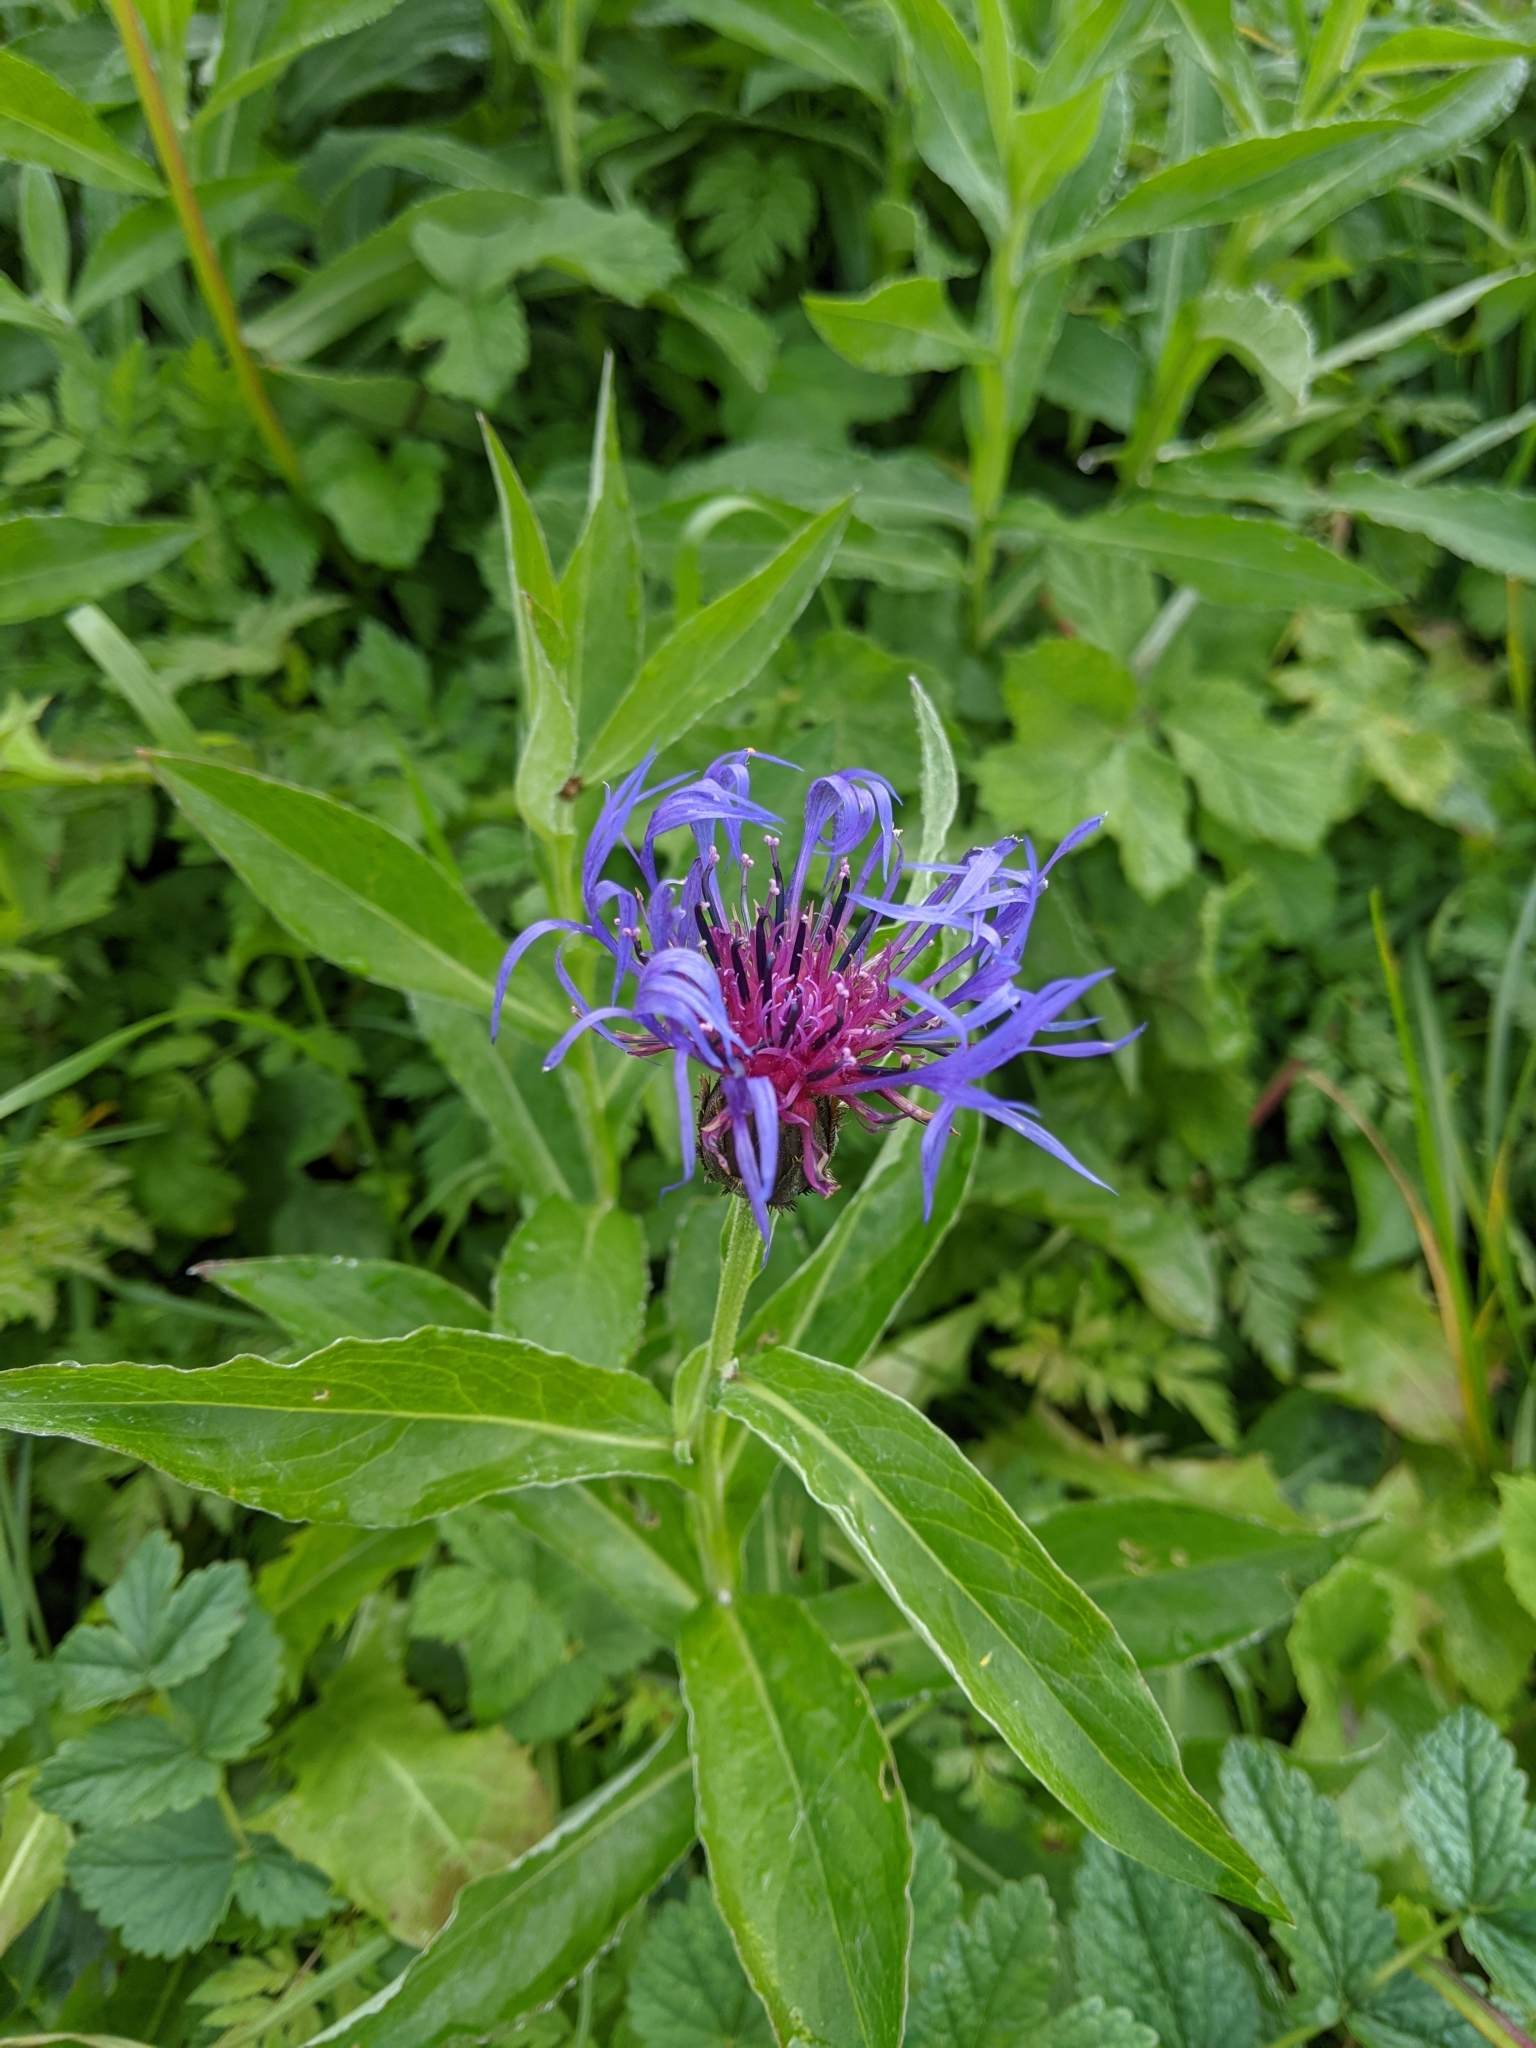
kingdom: Plantae
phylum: Tracheophyta
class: Magnoliopsida
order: Asterales
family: Asteraceae
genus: Centaurea
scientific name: Centaurea montana
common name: Perennial cornflower
